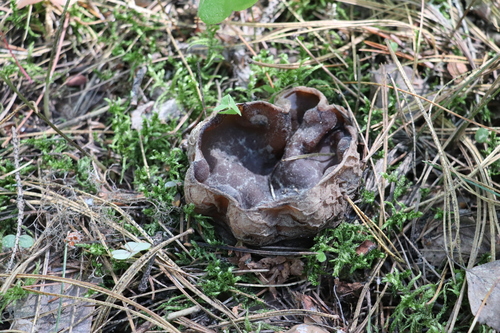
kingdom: Fungi
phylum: Ascomycota
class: Pezizomycetes
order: Pezizales
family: Sarcosomataceae
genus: Sarcosoma
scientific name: Sarcosoma globosum
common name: Charred-pancake cup
